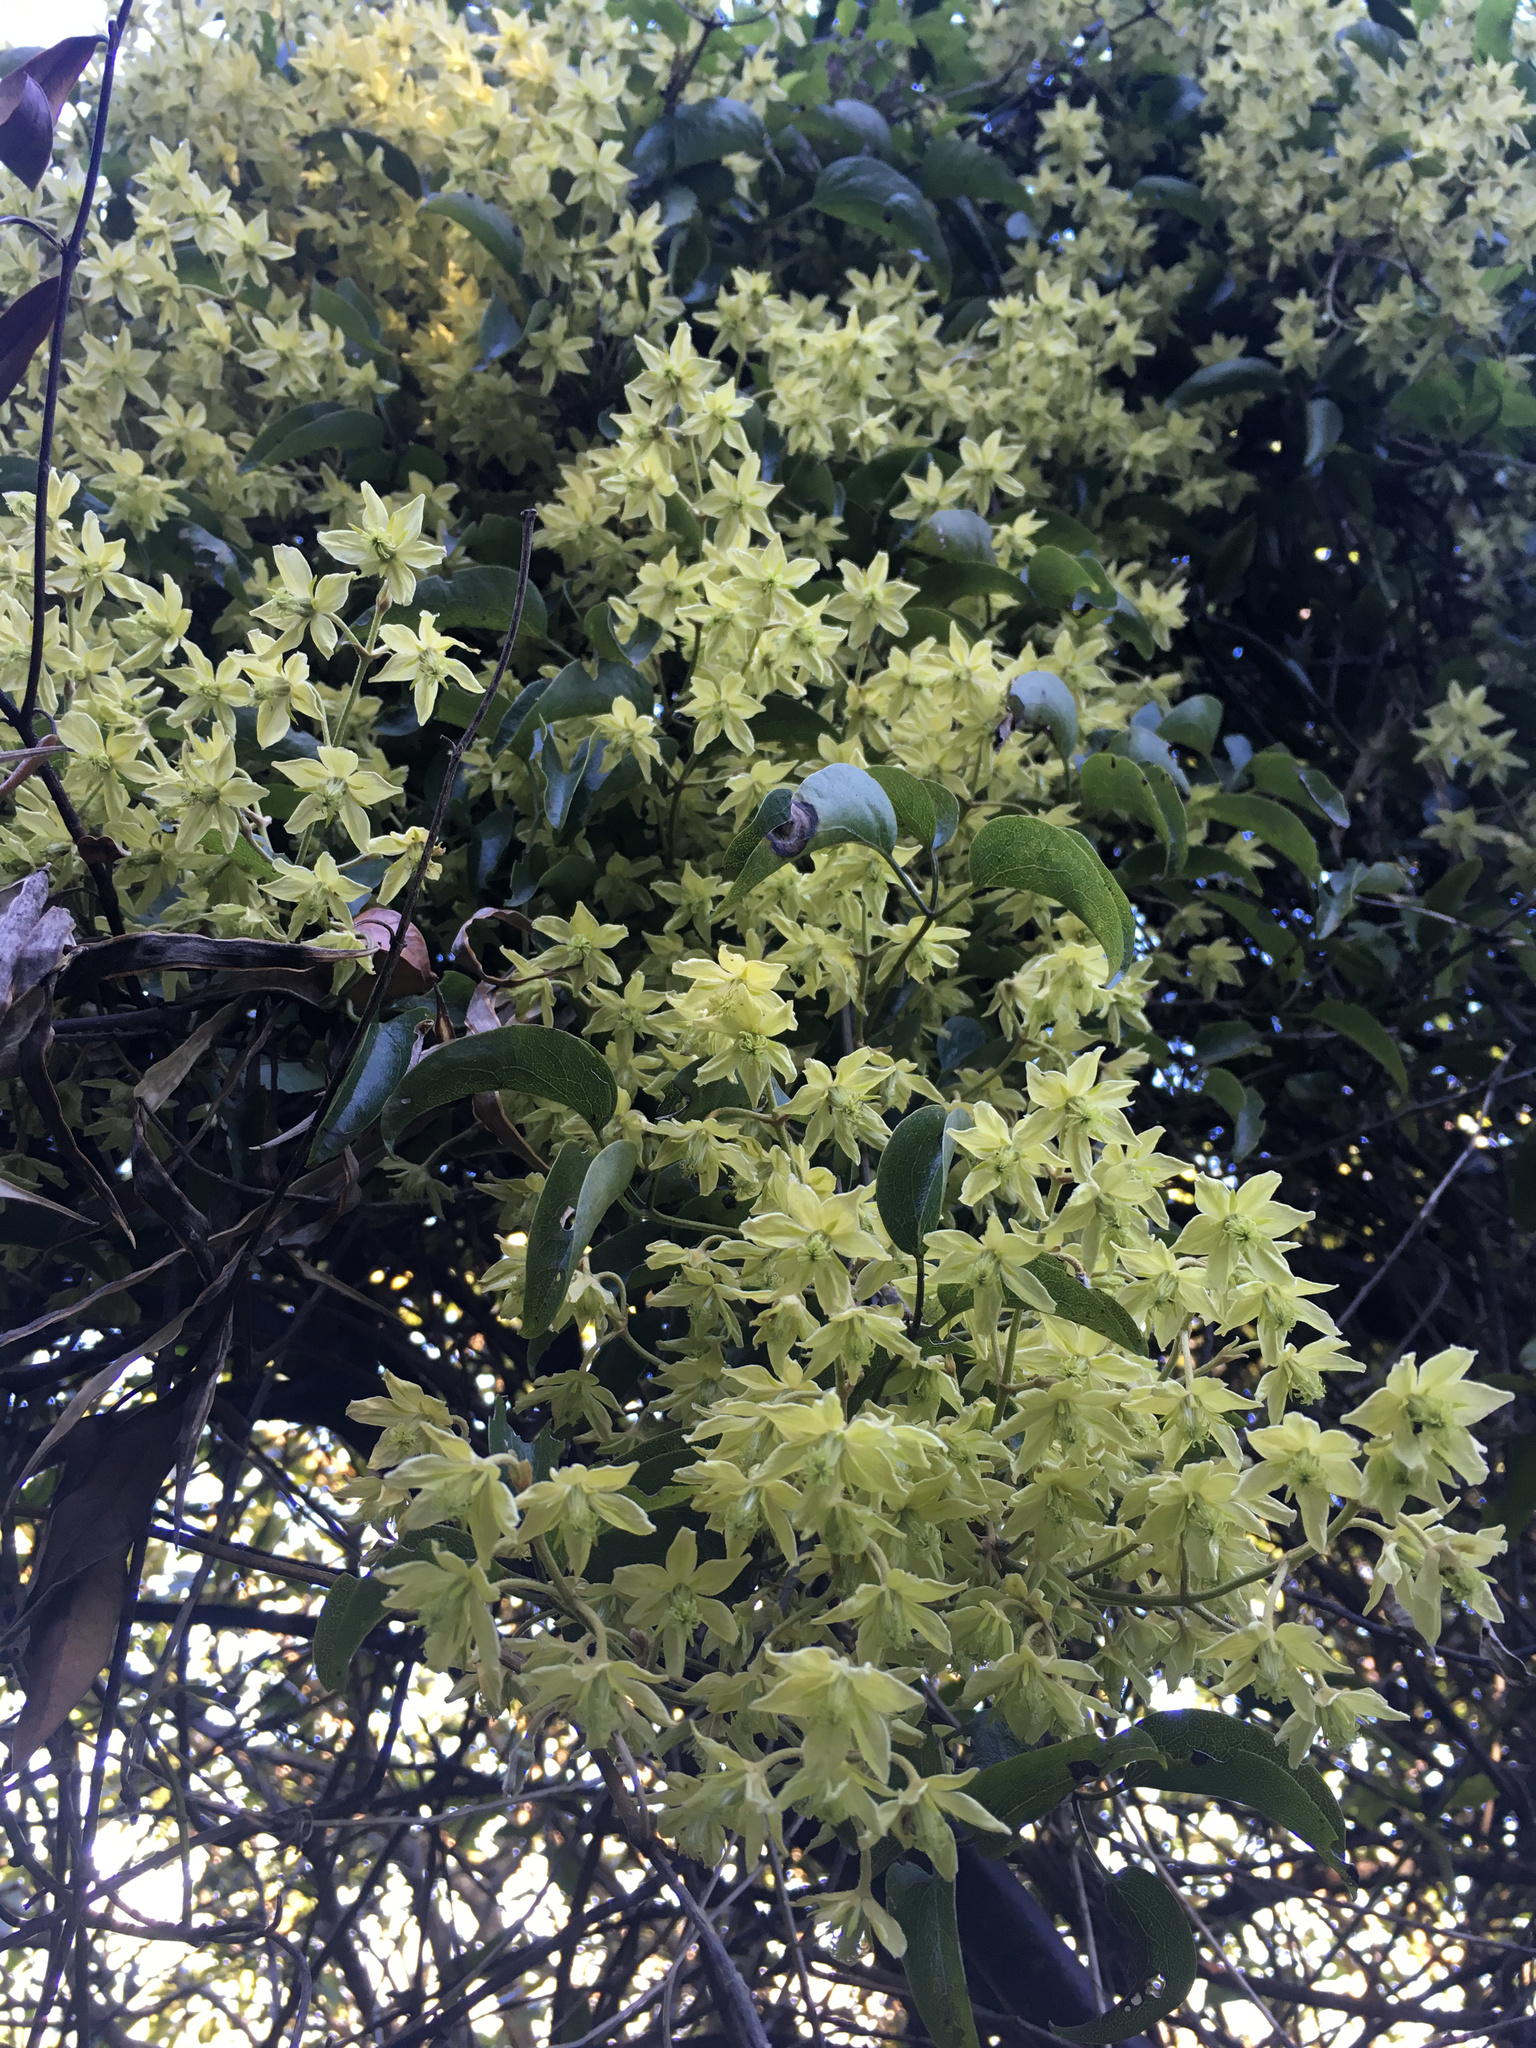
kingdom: Plantae
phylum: Tracheophyta
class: Magnoliopsida
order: Ranunculales
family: Ranunculaceae
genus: Clematis
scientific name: Clematis foetida
